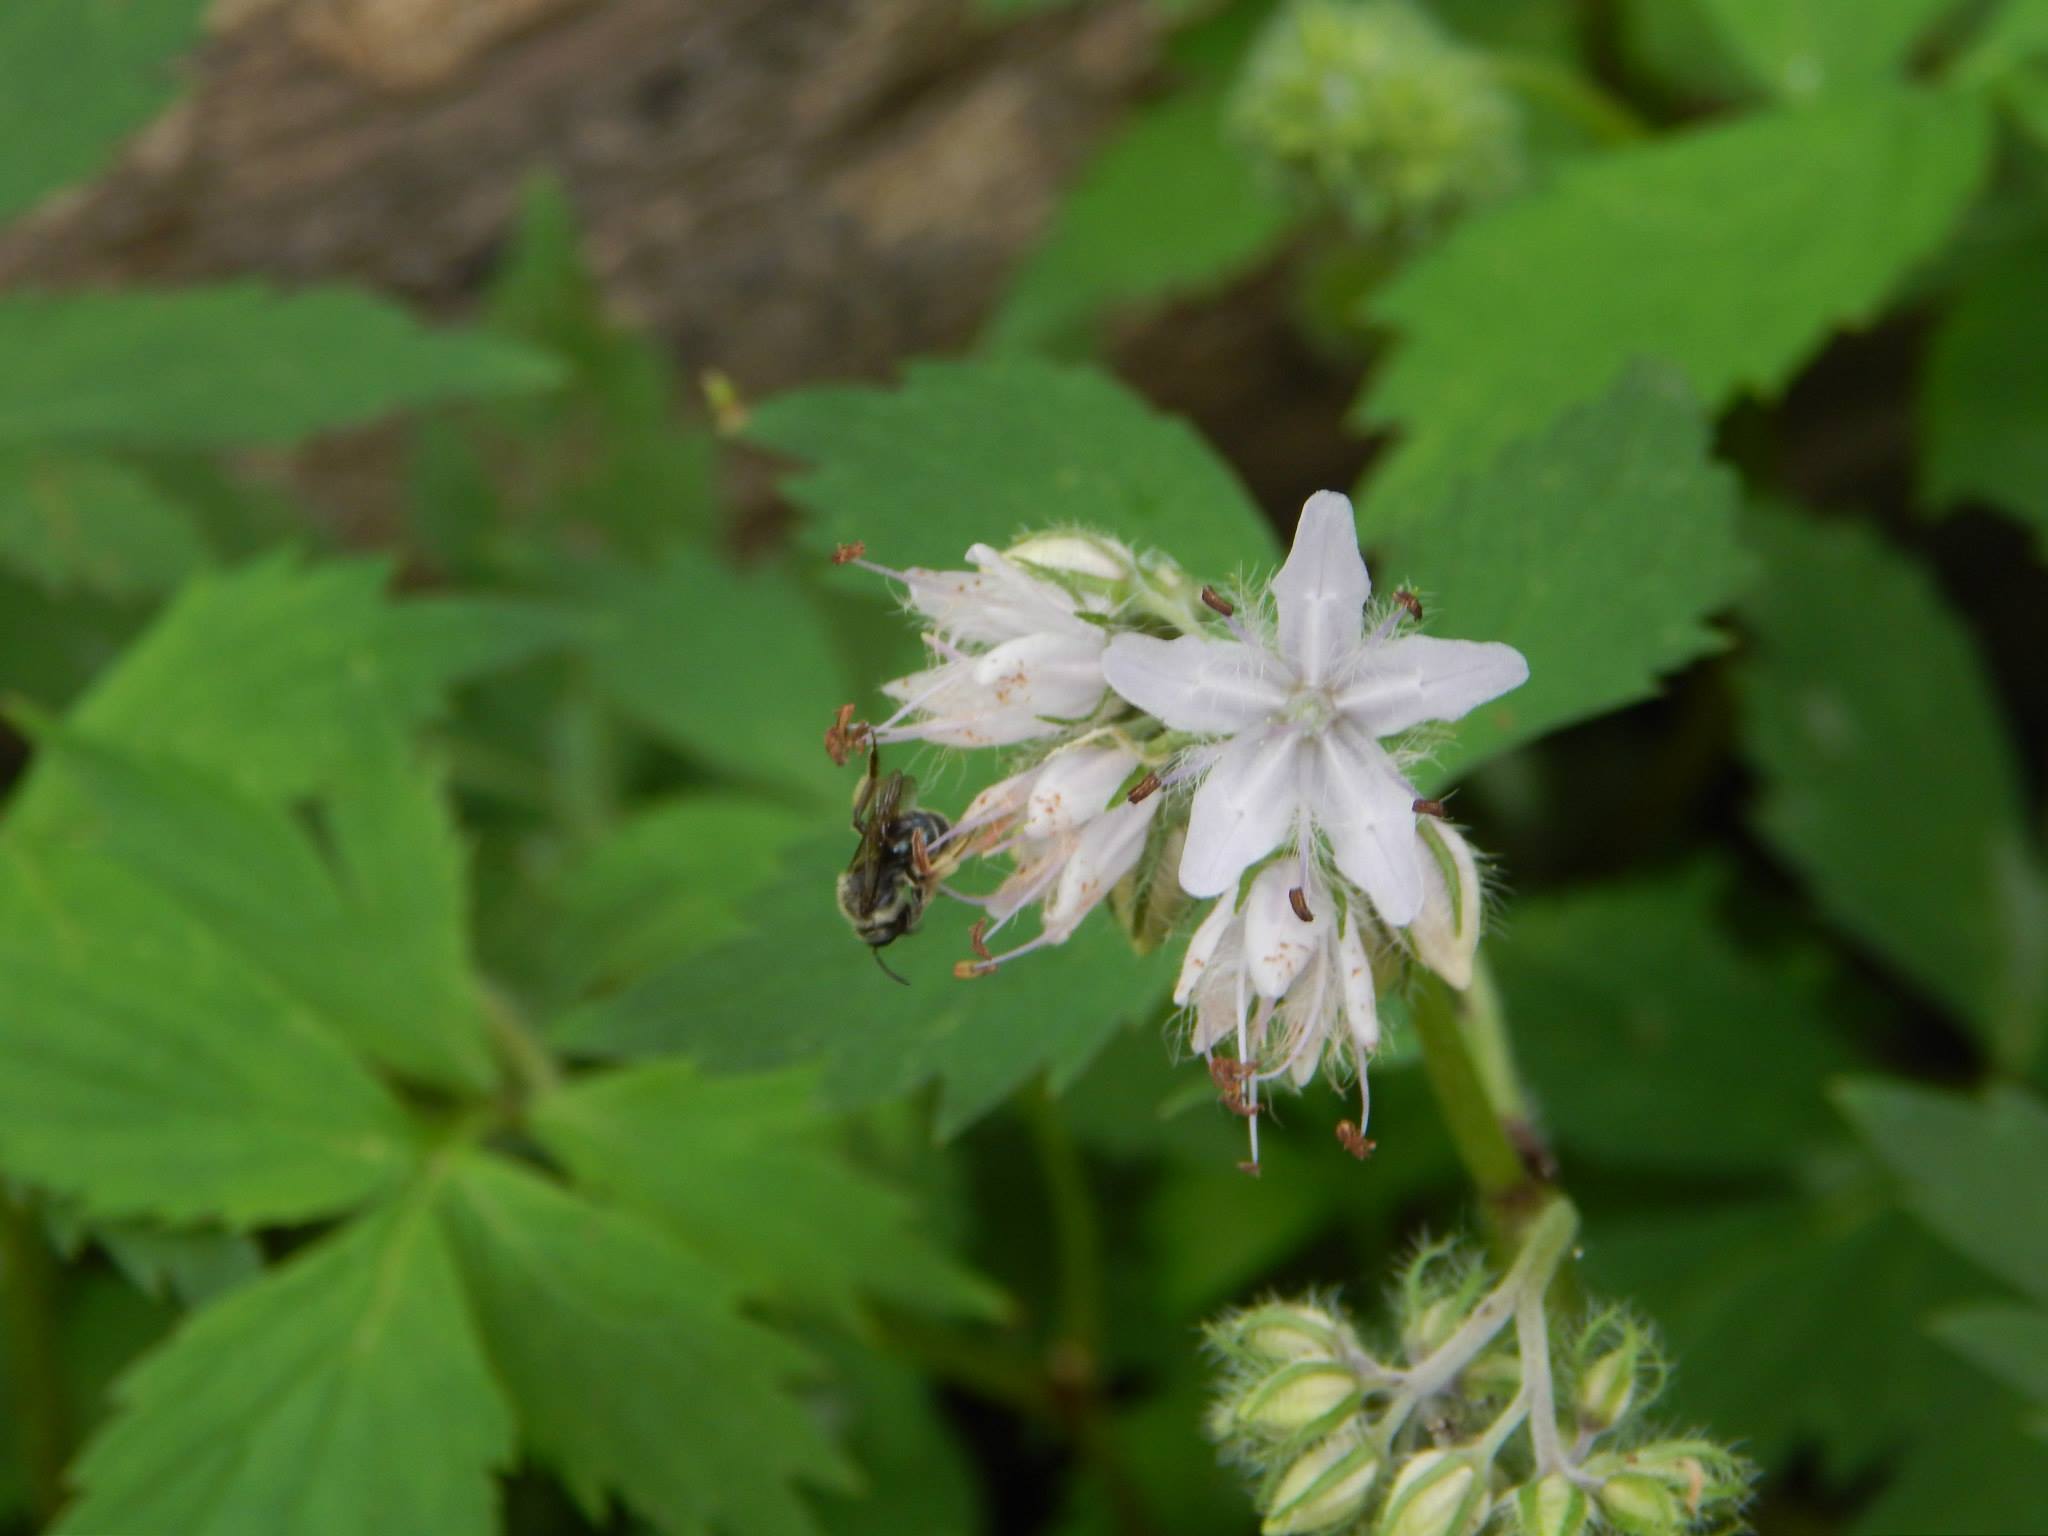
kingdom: Plantae
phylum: Tracheophyta
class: Magnoliopsida
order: Boraginales
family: Hydrophyllaceae
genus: Hydrophyllum
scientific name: Hydrophyllum virginianum
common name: Virginia waterleaf
